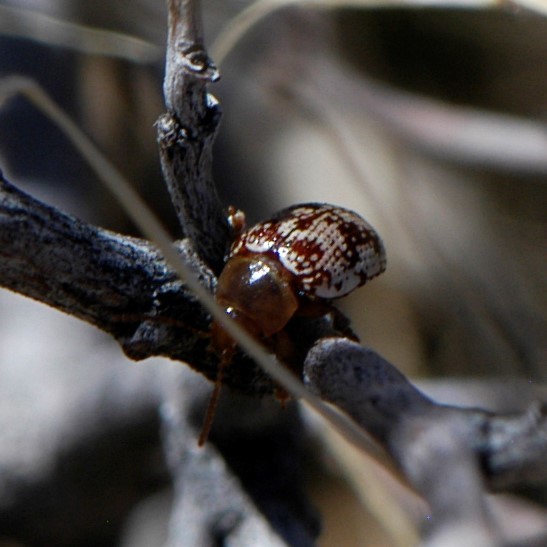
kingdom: Animalia
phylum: Arthropoda
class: Insecta
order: Coleoptera
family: Chrysomelidae
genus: Blepharida
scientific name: Blepharida rhois
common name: Sumac flea beetle
